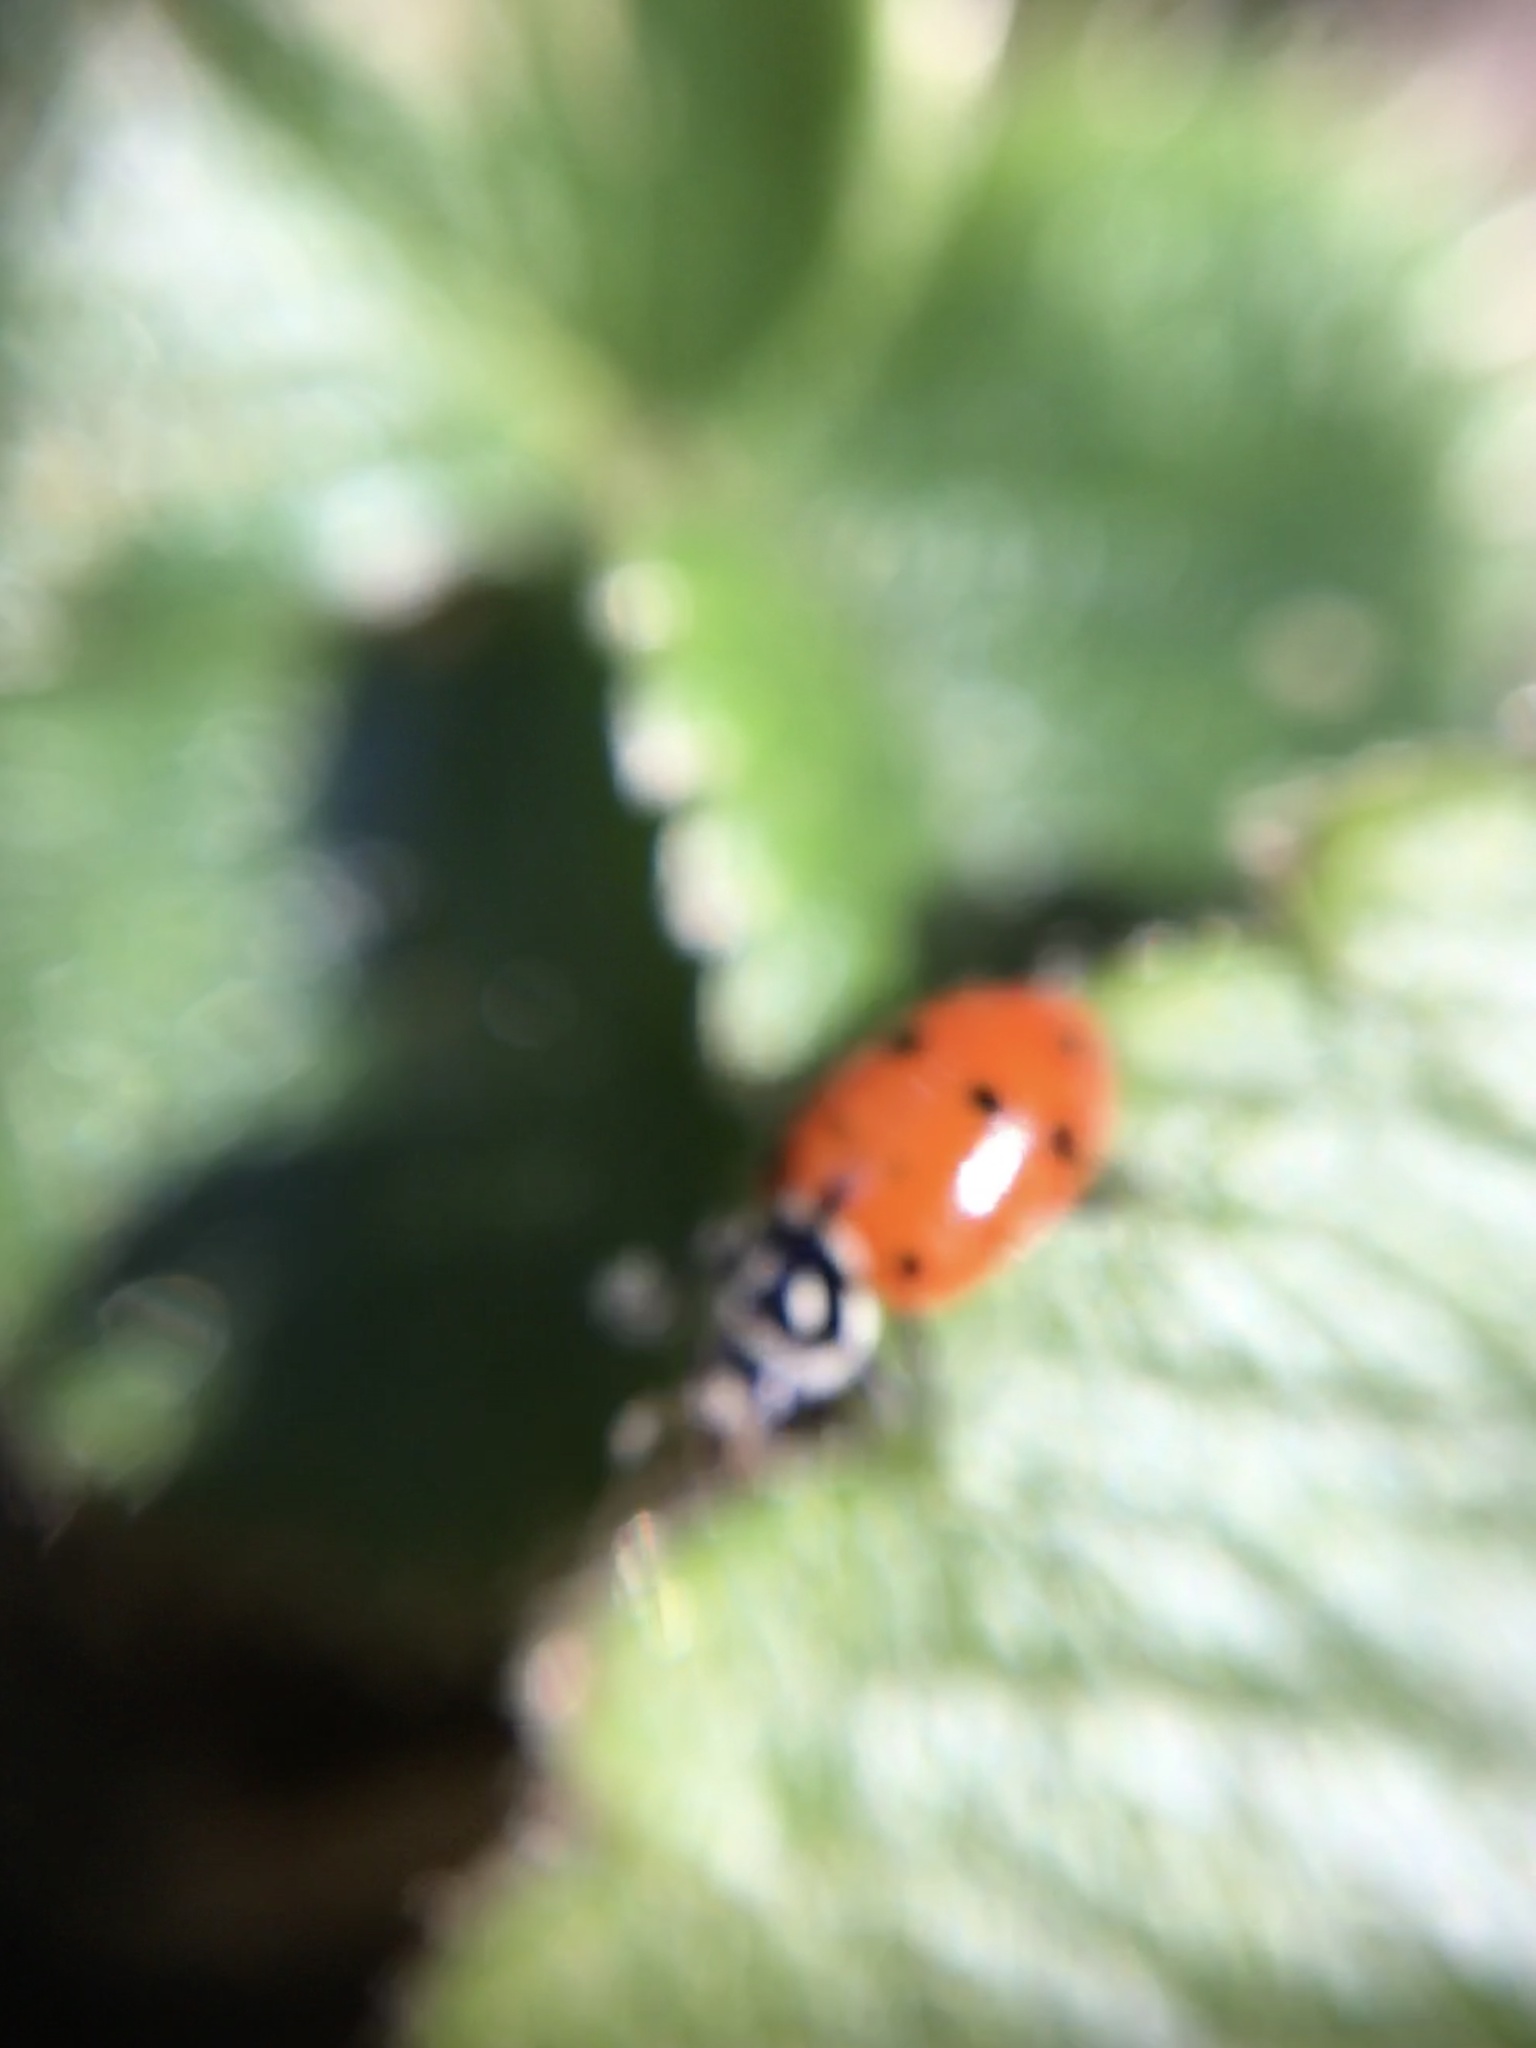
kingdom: Animalia
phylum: Arthropoda
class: Insecta
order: Coleoptera
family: Coccinellidae
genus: Hippodamia
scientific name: Hippodamia convergens
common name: Convergent lady beetle
